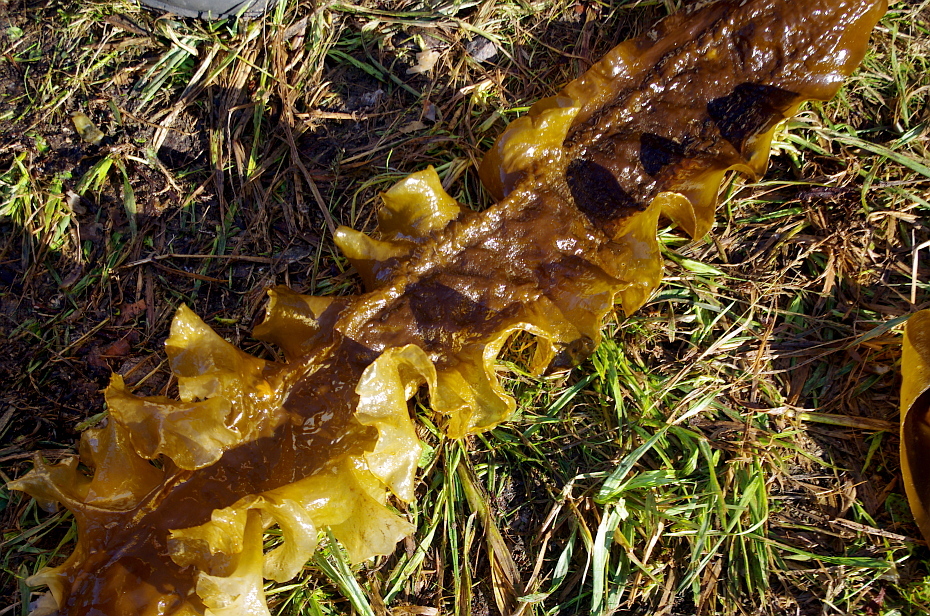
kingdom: Chromista
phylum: Ochrophyta
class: Phaeophyceae
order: Laminariales
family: Laminariaceae
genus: Saccharina
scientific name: Saccharina latissima
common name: Poor man's weather glass
